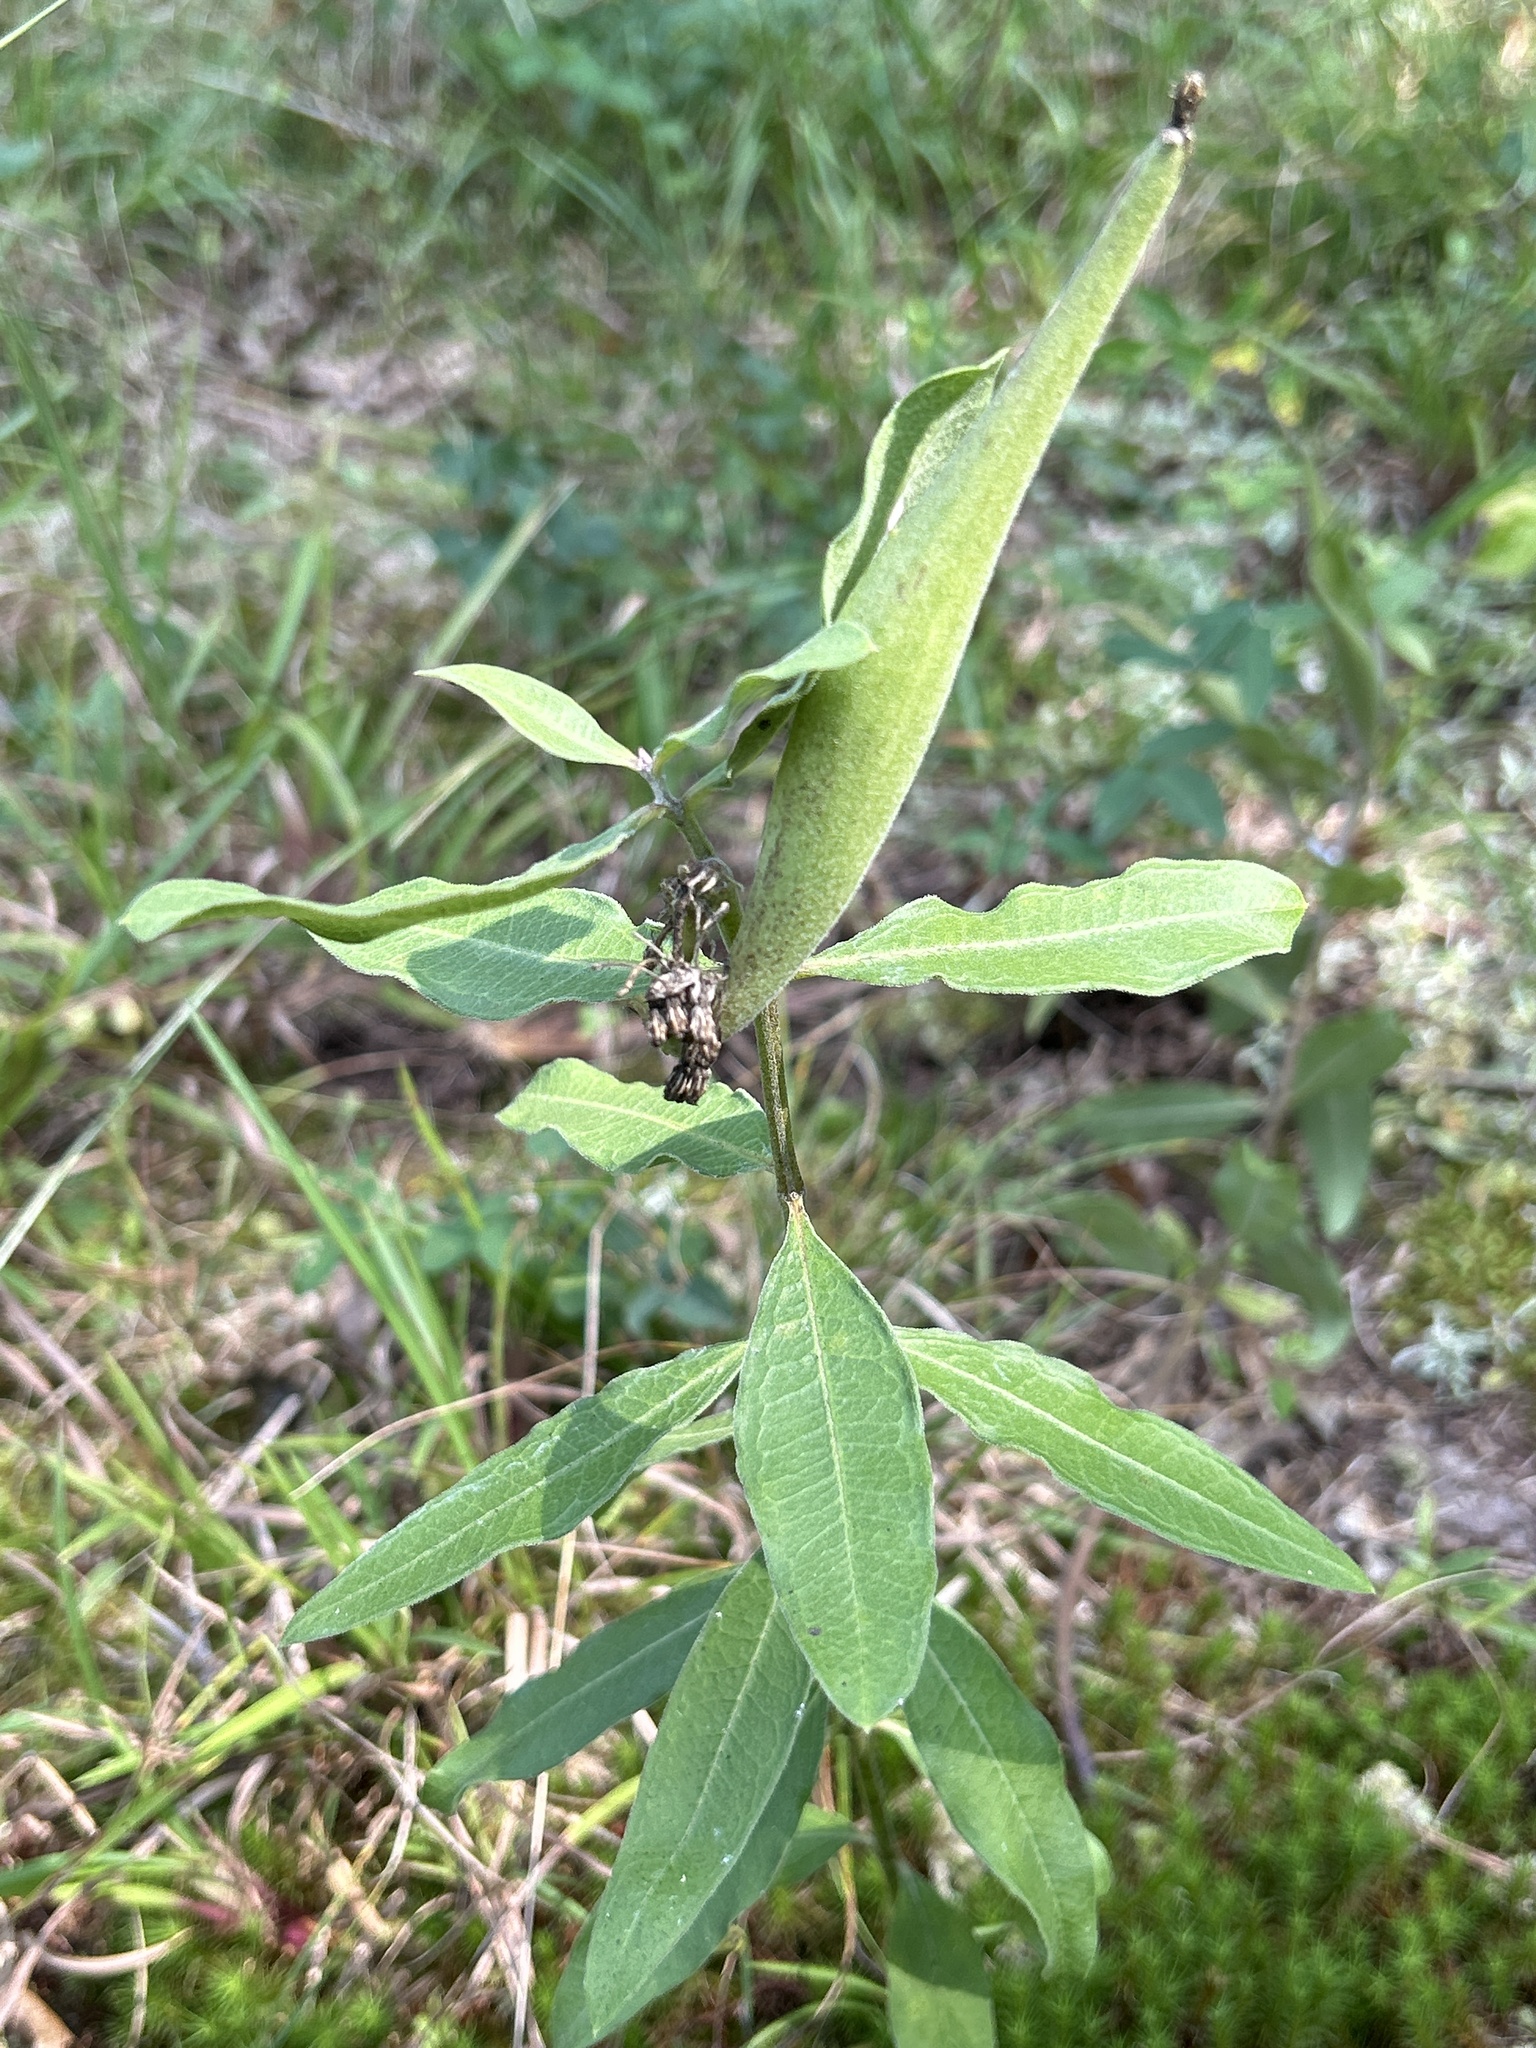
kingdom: Plantae
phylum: Tracheophyta
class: Magnoliopsida
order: Gentianales
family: Apocynaceae
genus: Asclepias
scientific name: Asclepias viridiflora
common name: Green comet milkweed
